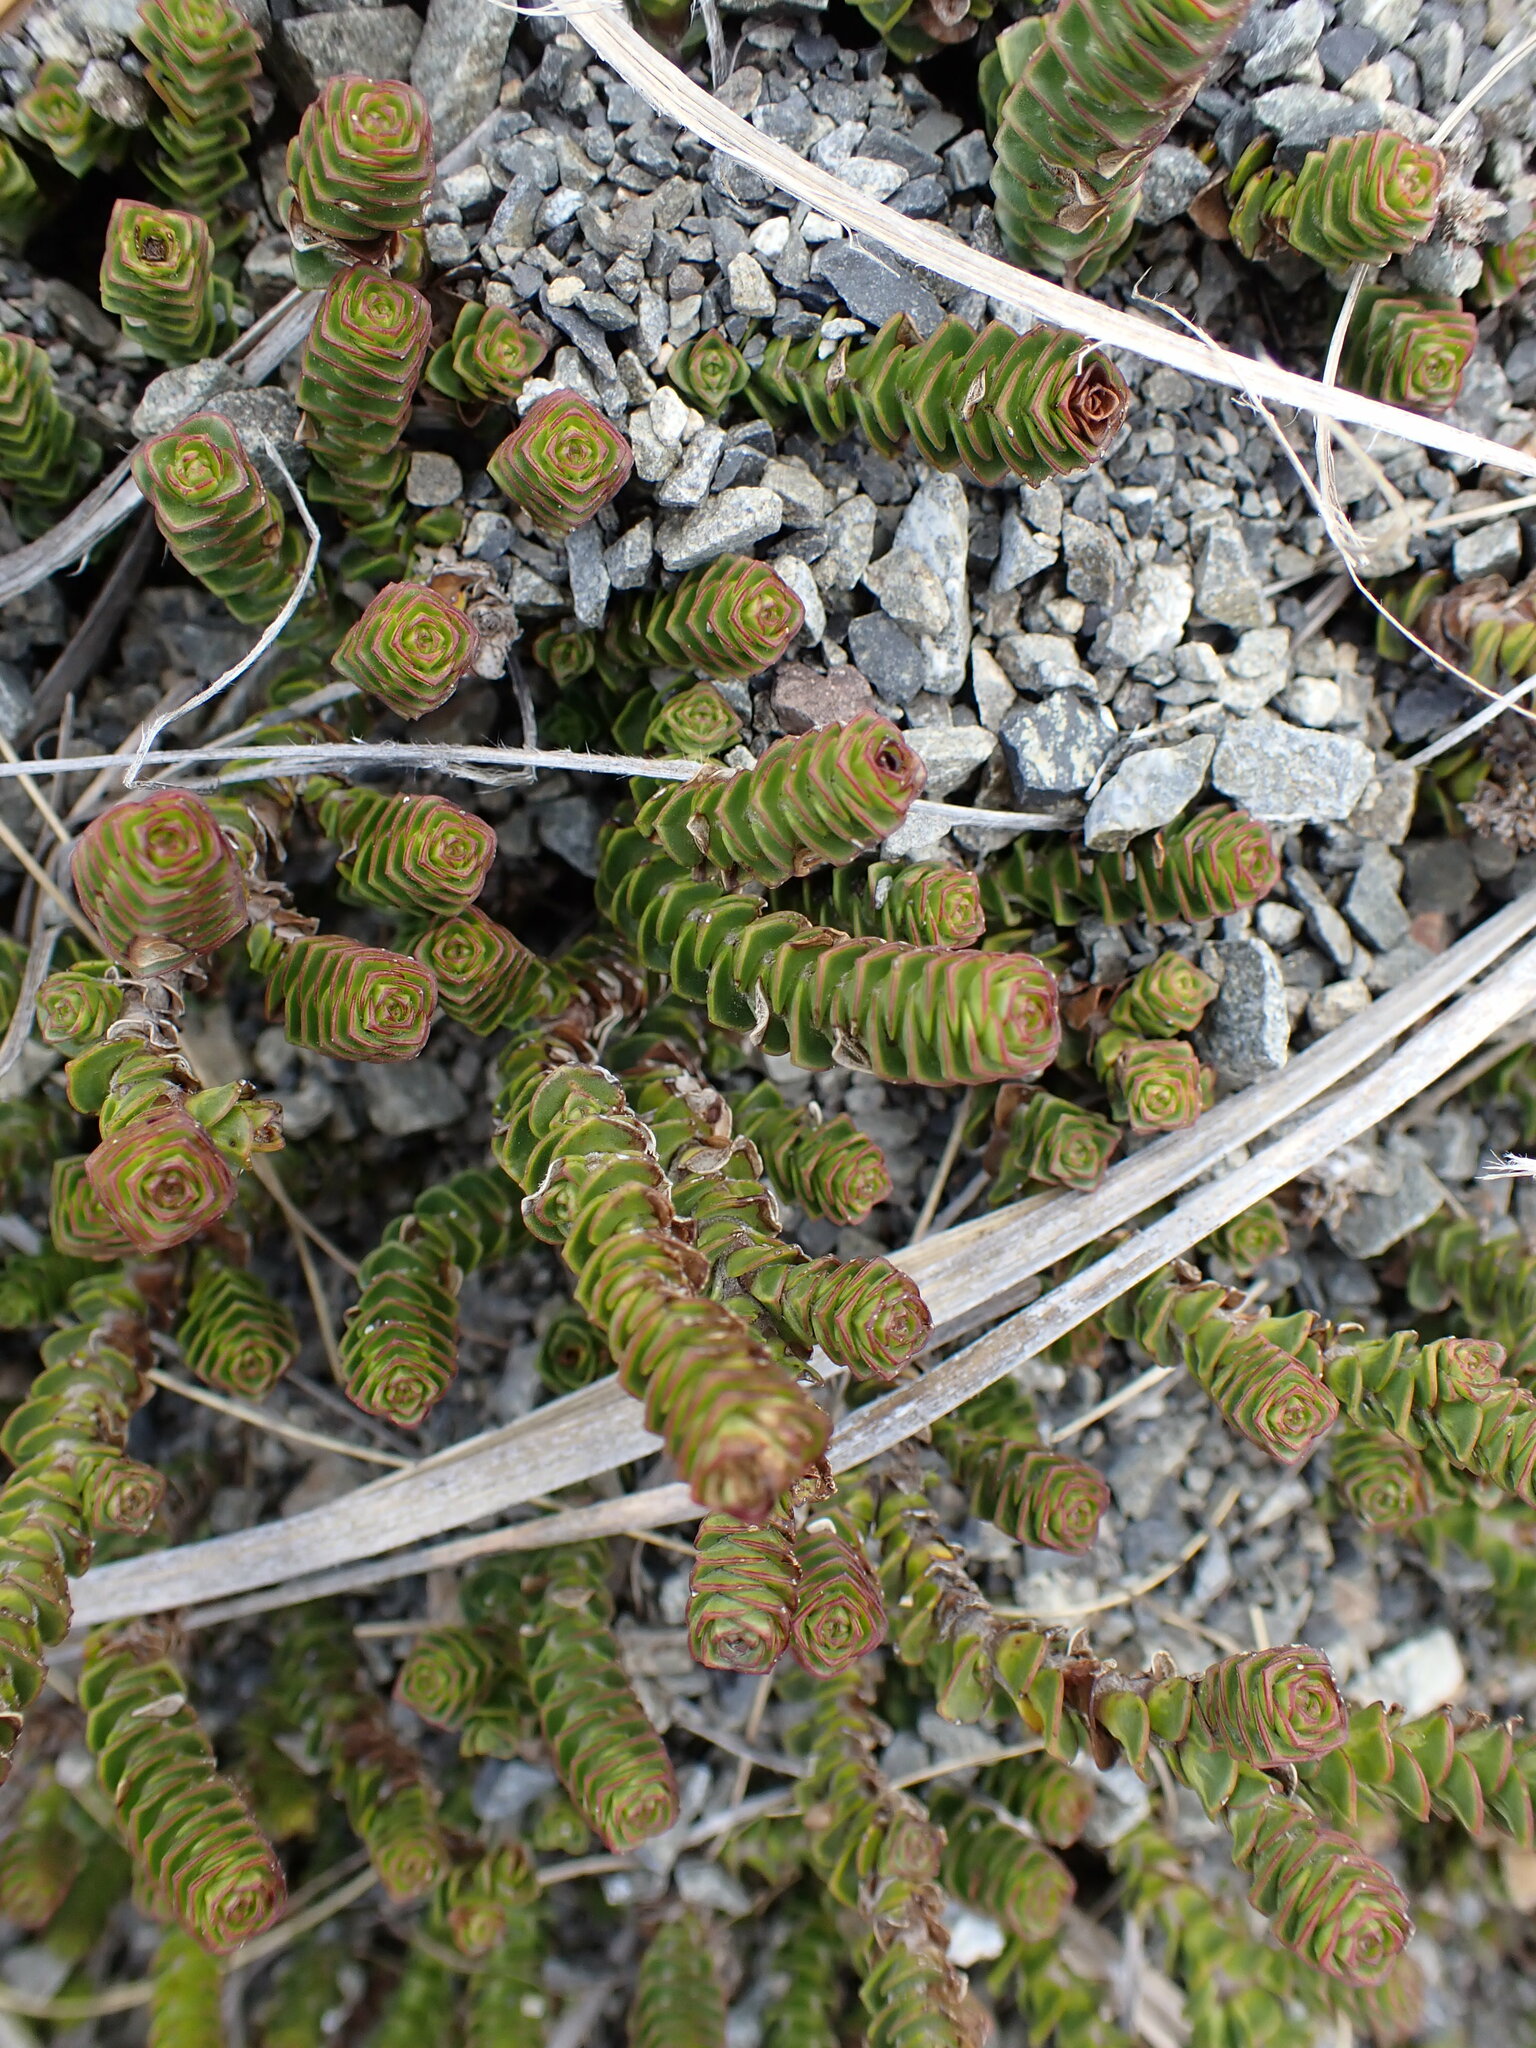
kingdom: Plantae
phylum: Tracheophyta
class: Magnoliopsida
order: Lamiales
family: Plantaginaceae
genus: Veronica
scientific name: Veronica epacridea
